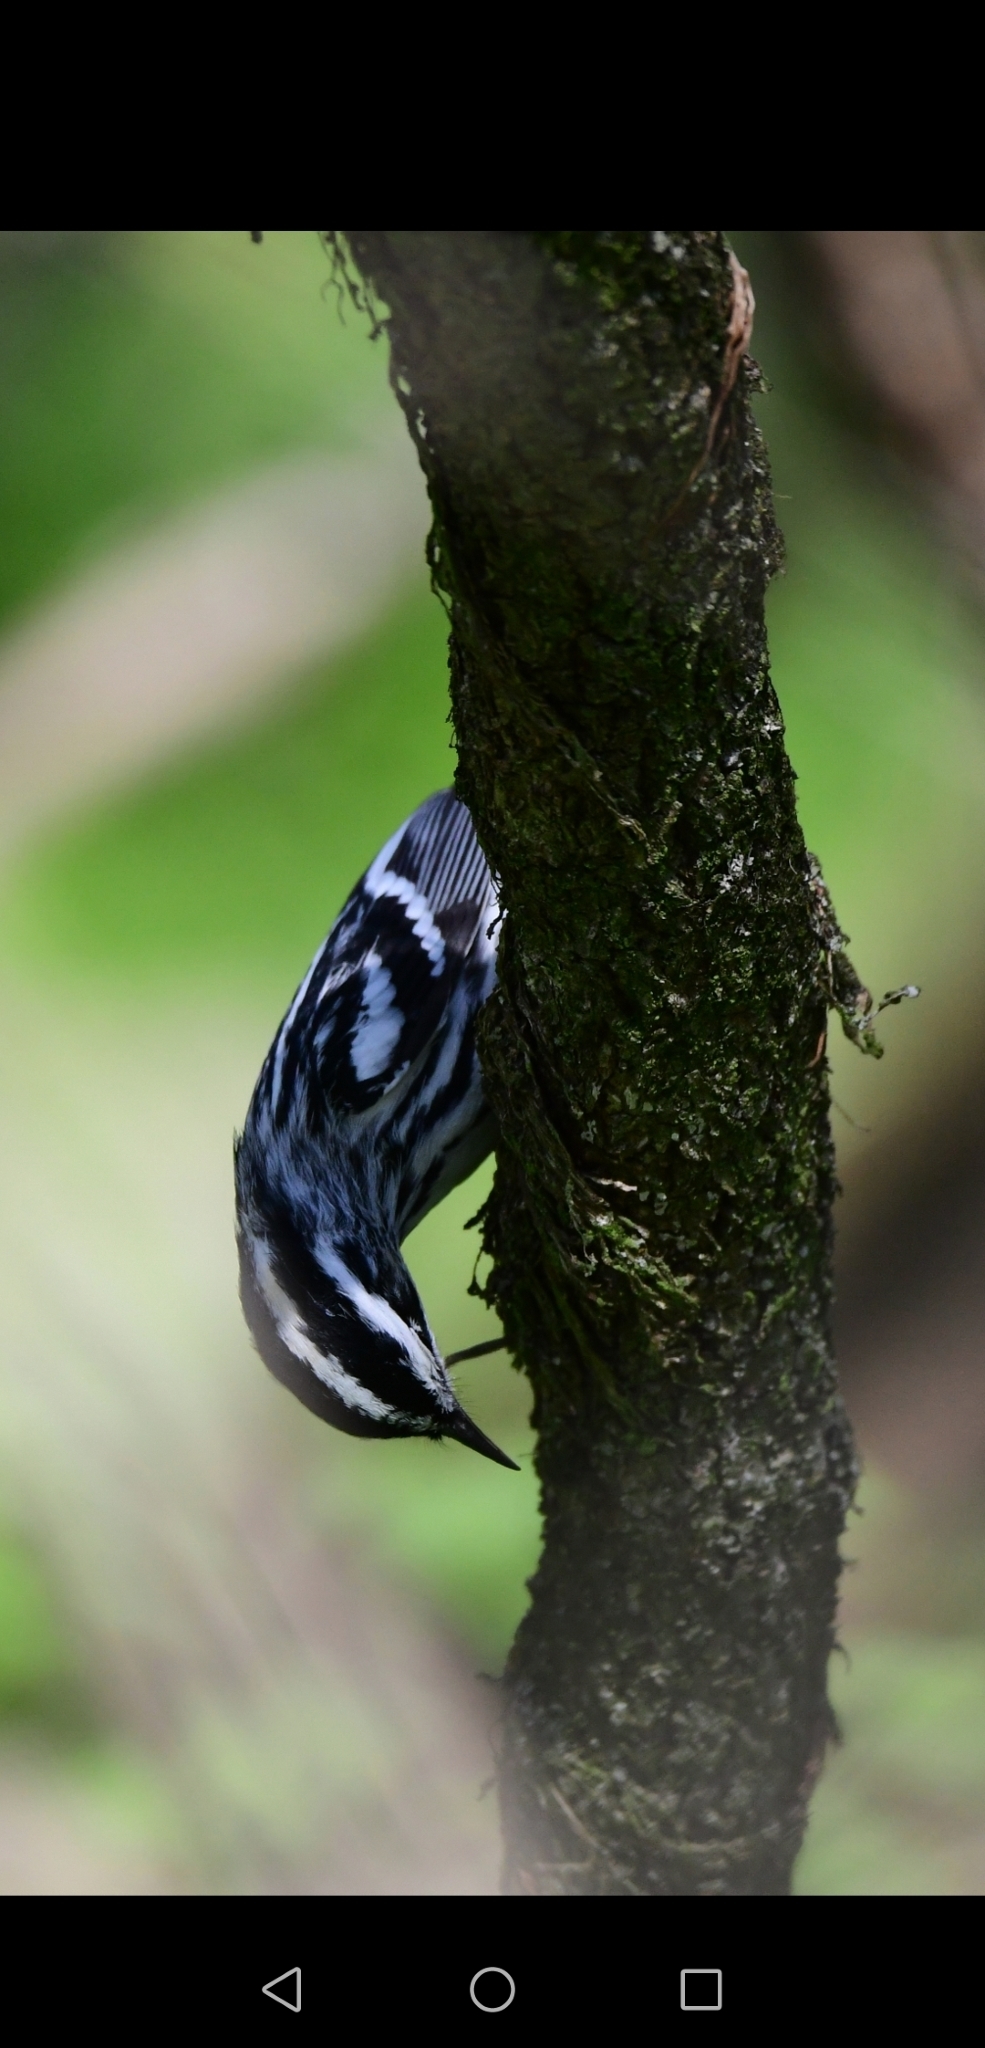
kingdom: Animalia
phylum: Chordata
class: Aves
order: Passeriformes
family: Parulidae
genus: Mniotilta
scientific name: Mniotilta varia
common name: Black-and-white warbler
